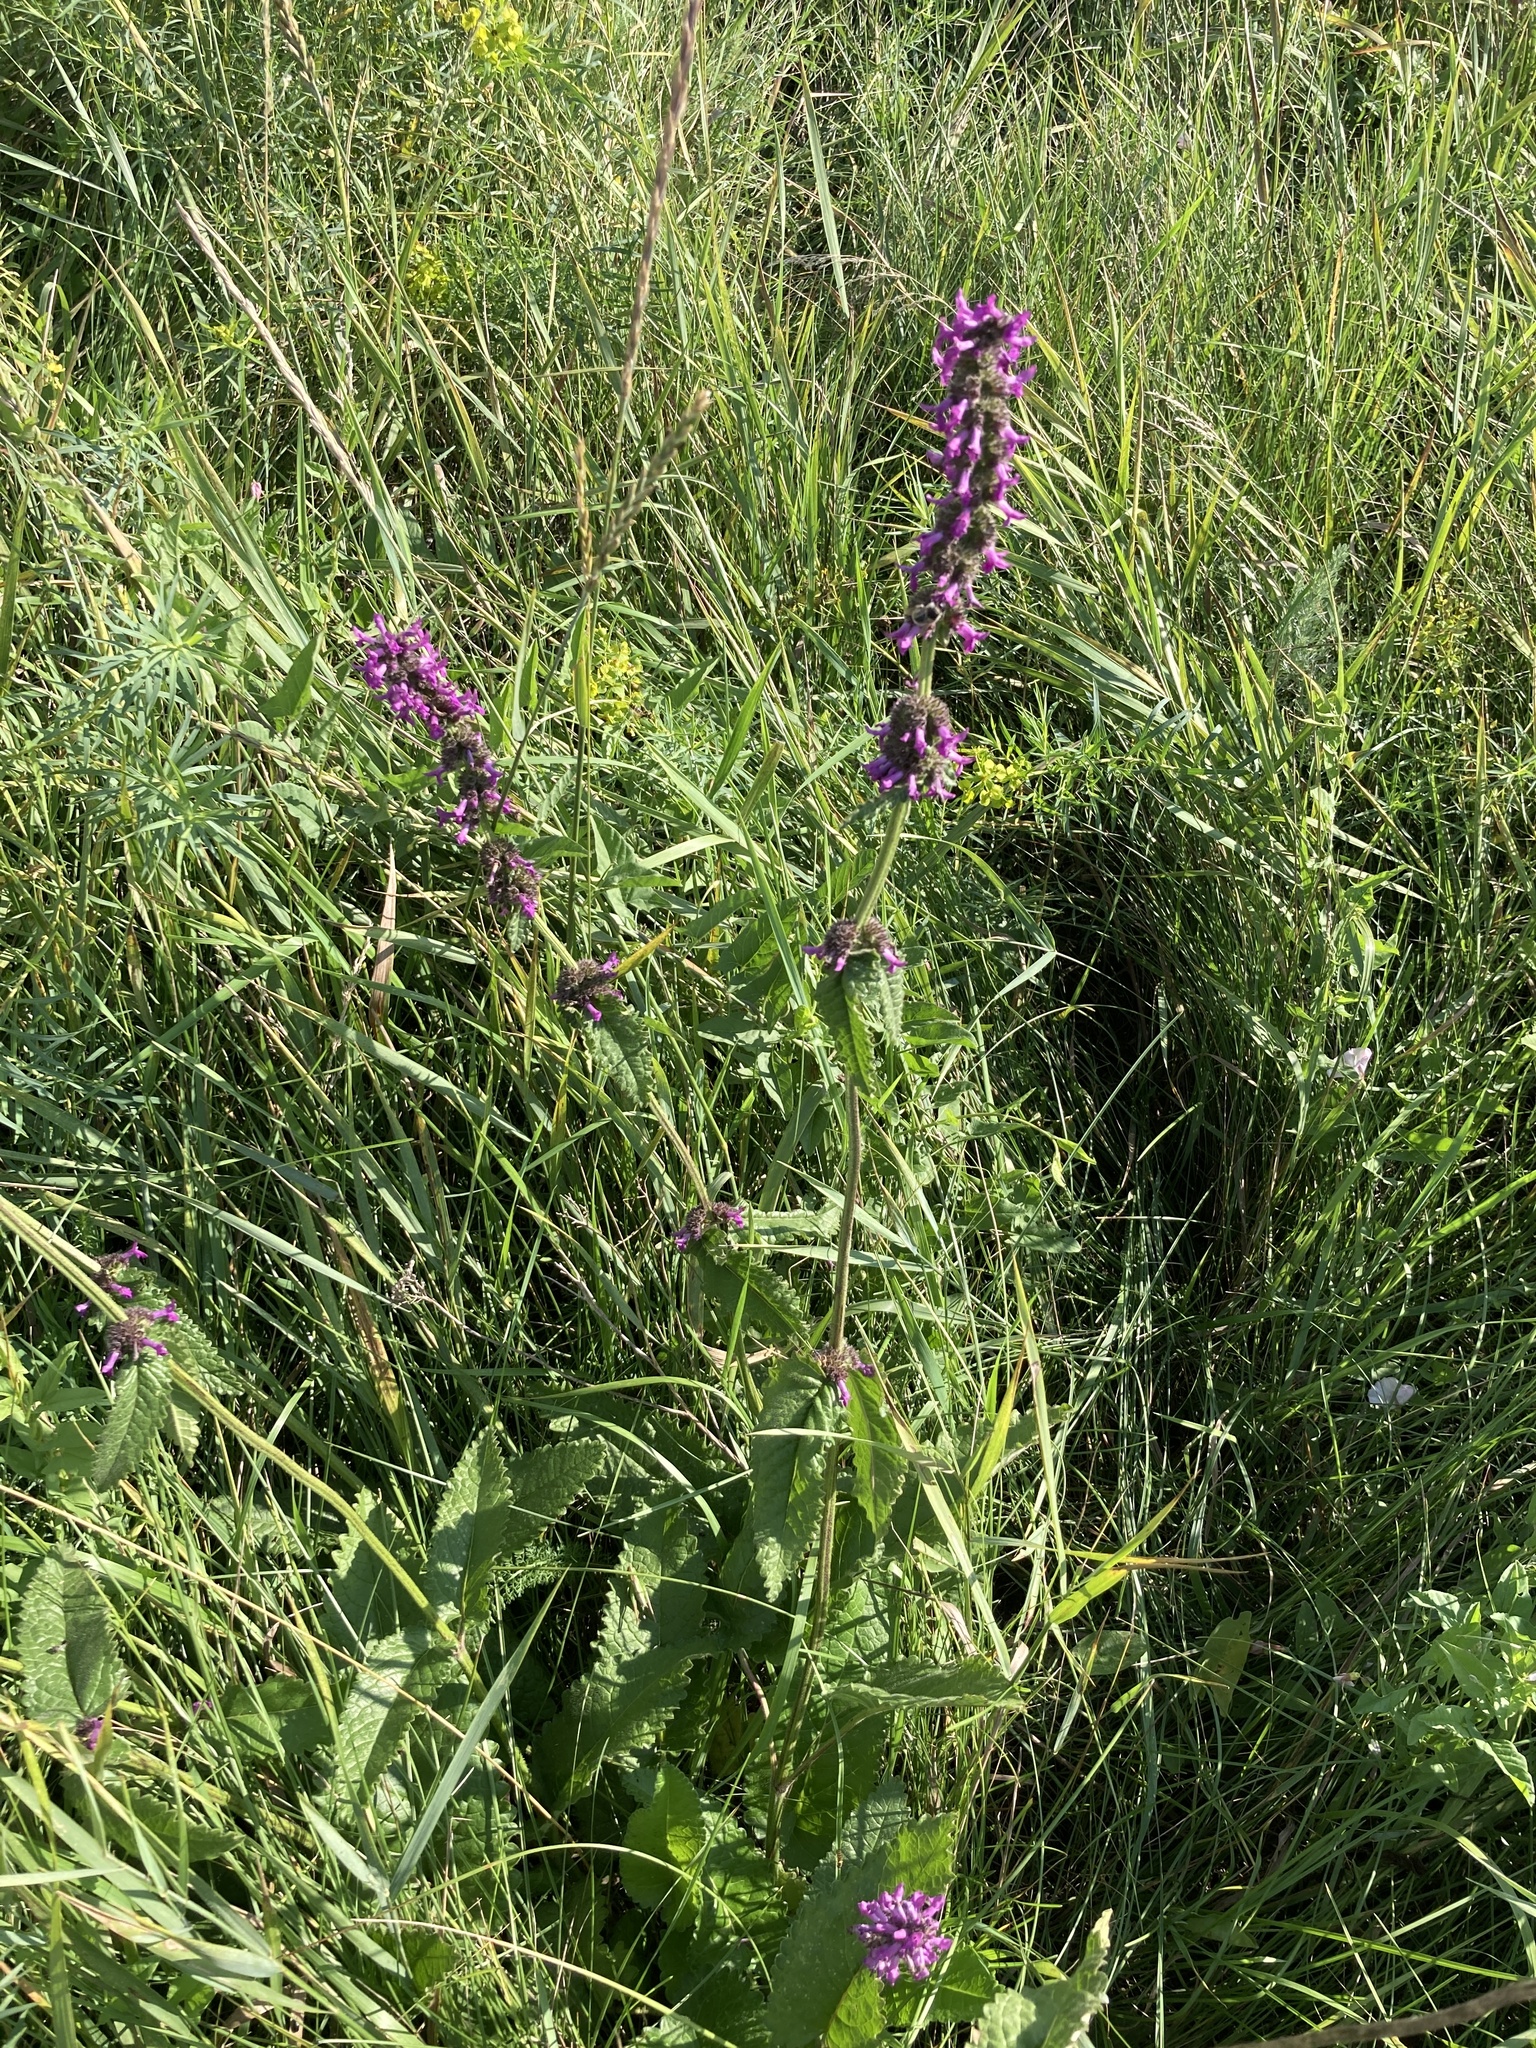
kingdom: Plantae
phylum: Tracheophyta
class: Magnoliopsida
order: Lamiales
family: Lamiaceae
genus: Betonica
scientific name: Betonica officinalis
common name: Bishop's-wort
